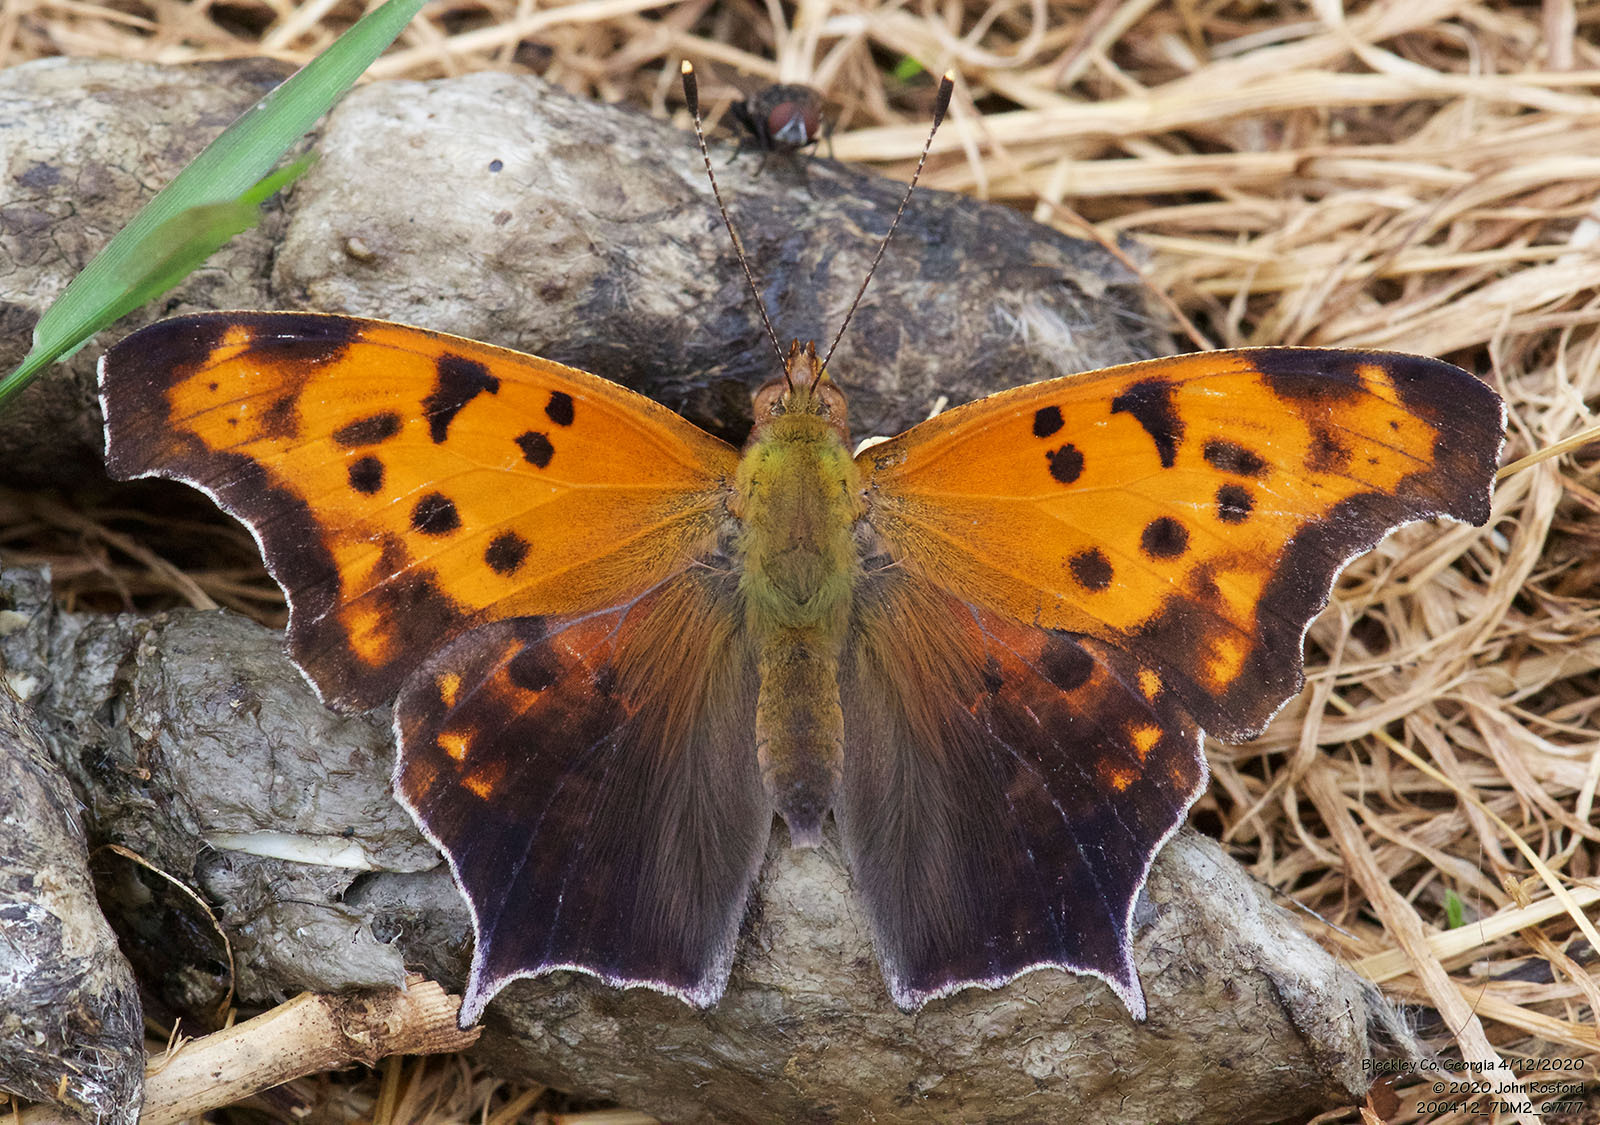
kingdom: Animalia
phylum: Arthropoda
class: Insecta
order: Lepidoptera
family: Nymphalidae
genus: Polygonia
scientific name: Polygonia interrogationis
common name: Question mark
